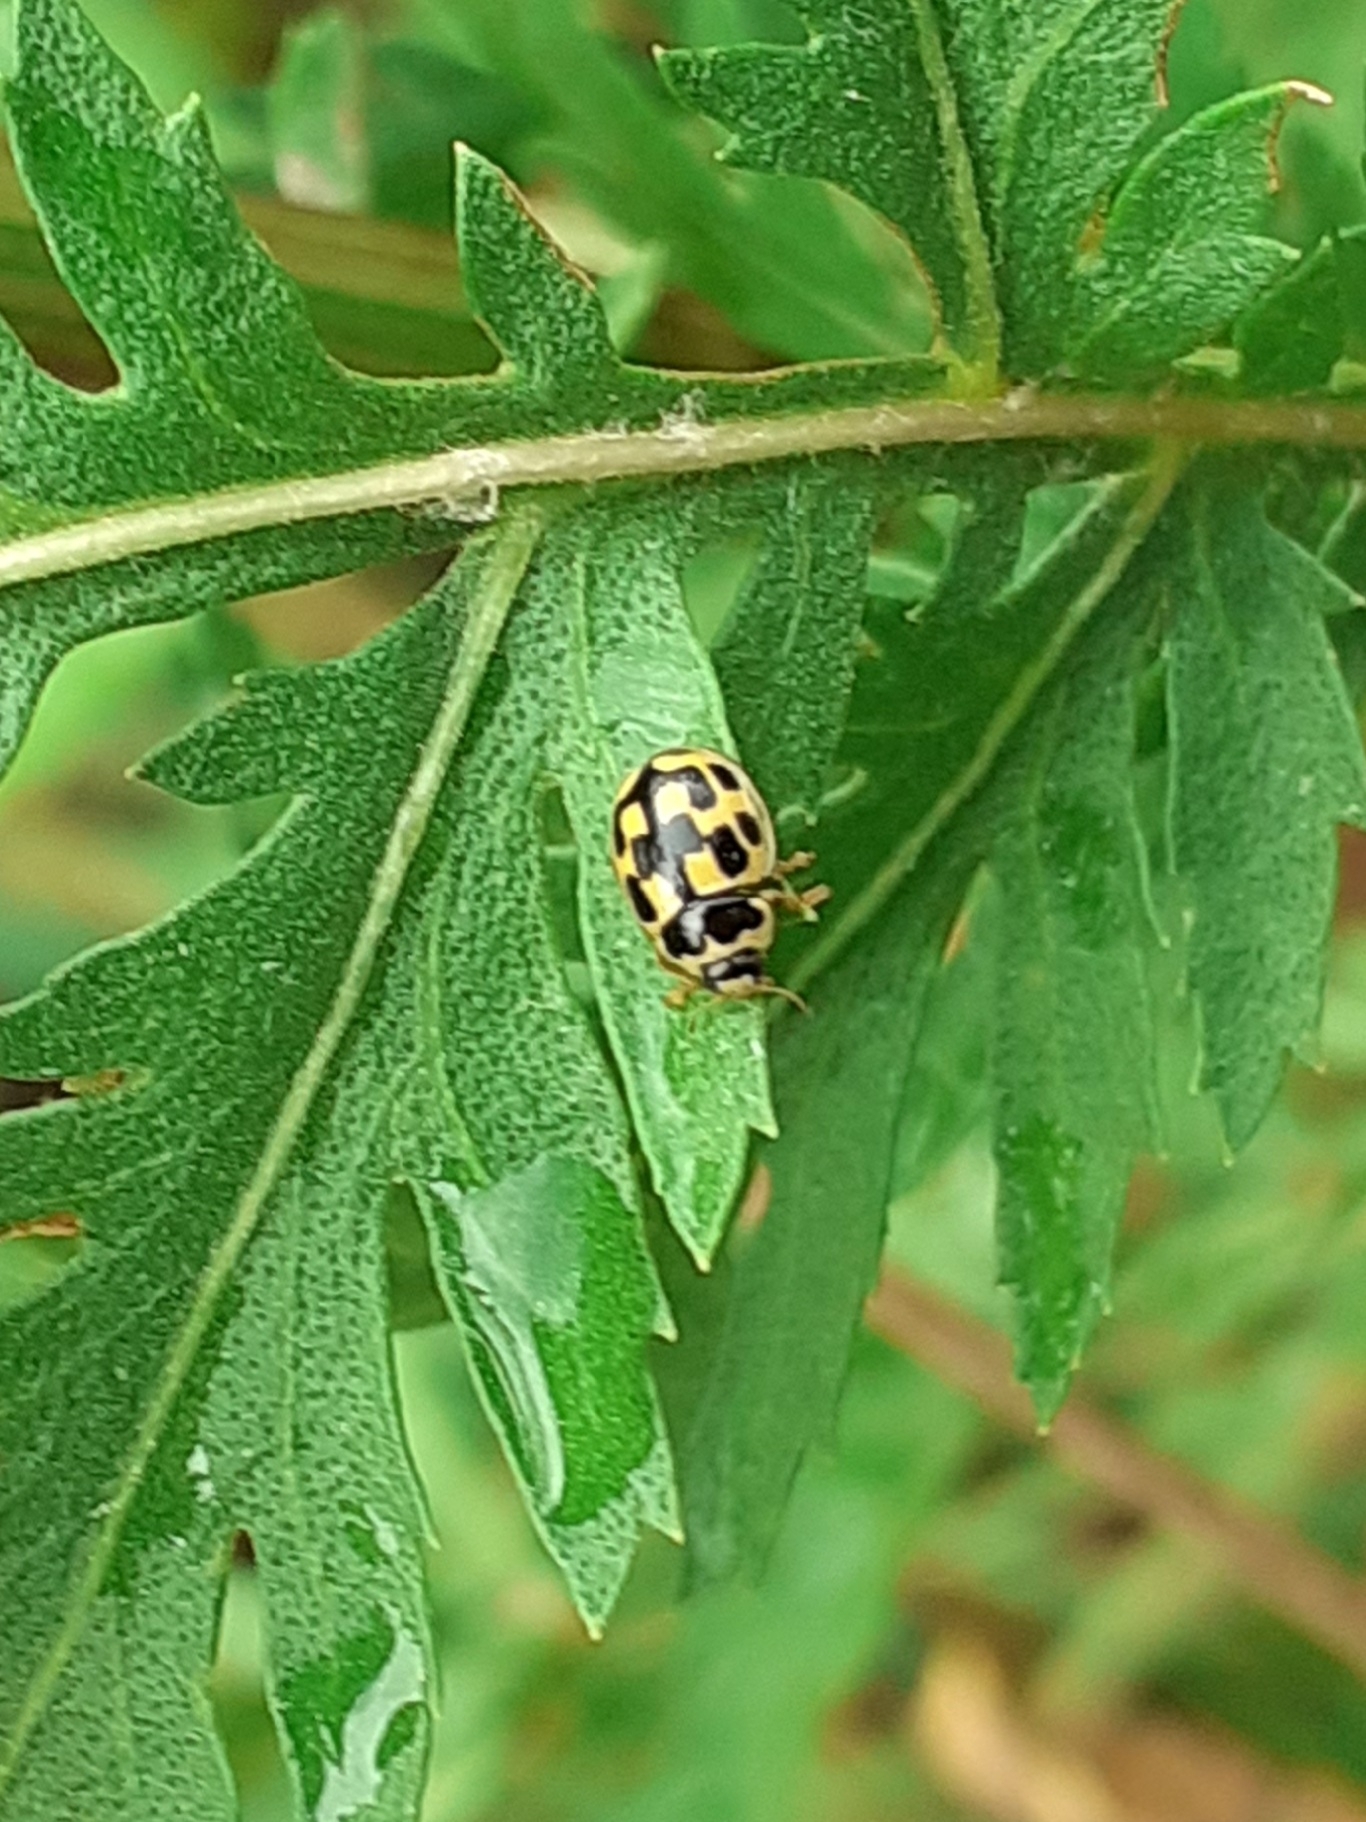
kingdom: Animalia
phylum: Arthropoda
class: Insecta
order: Coleoptera
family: Coccinellidae
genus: Propylaea
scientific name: Propylaea quatuordecimpunctata
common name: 14-spotted ladybird beetle
